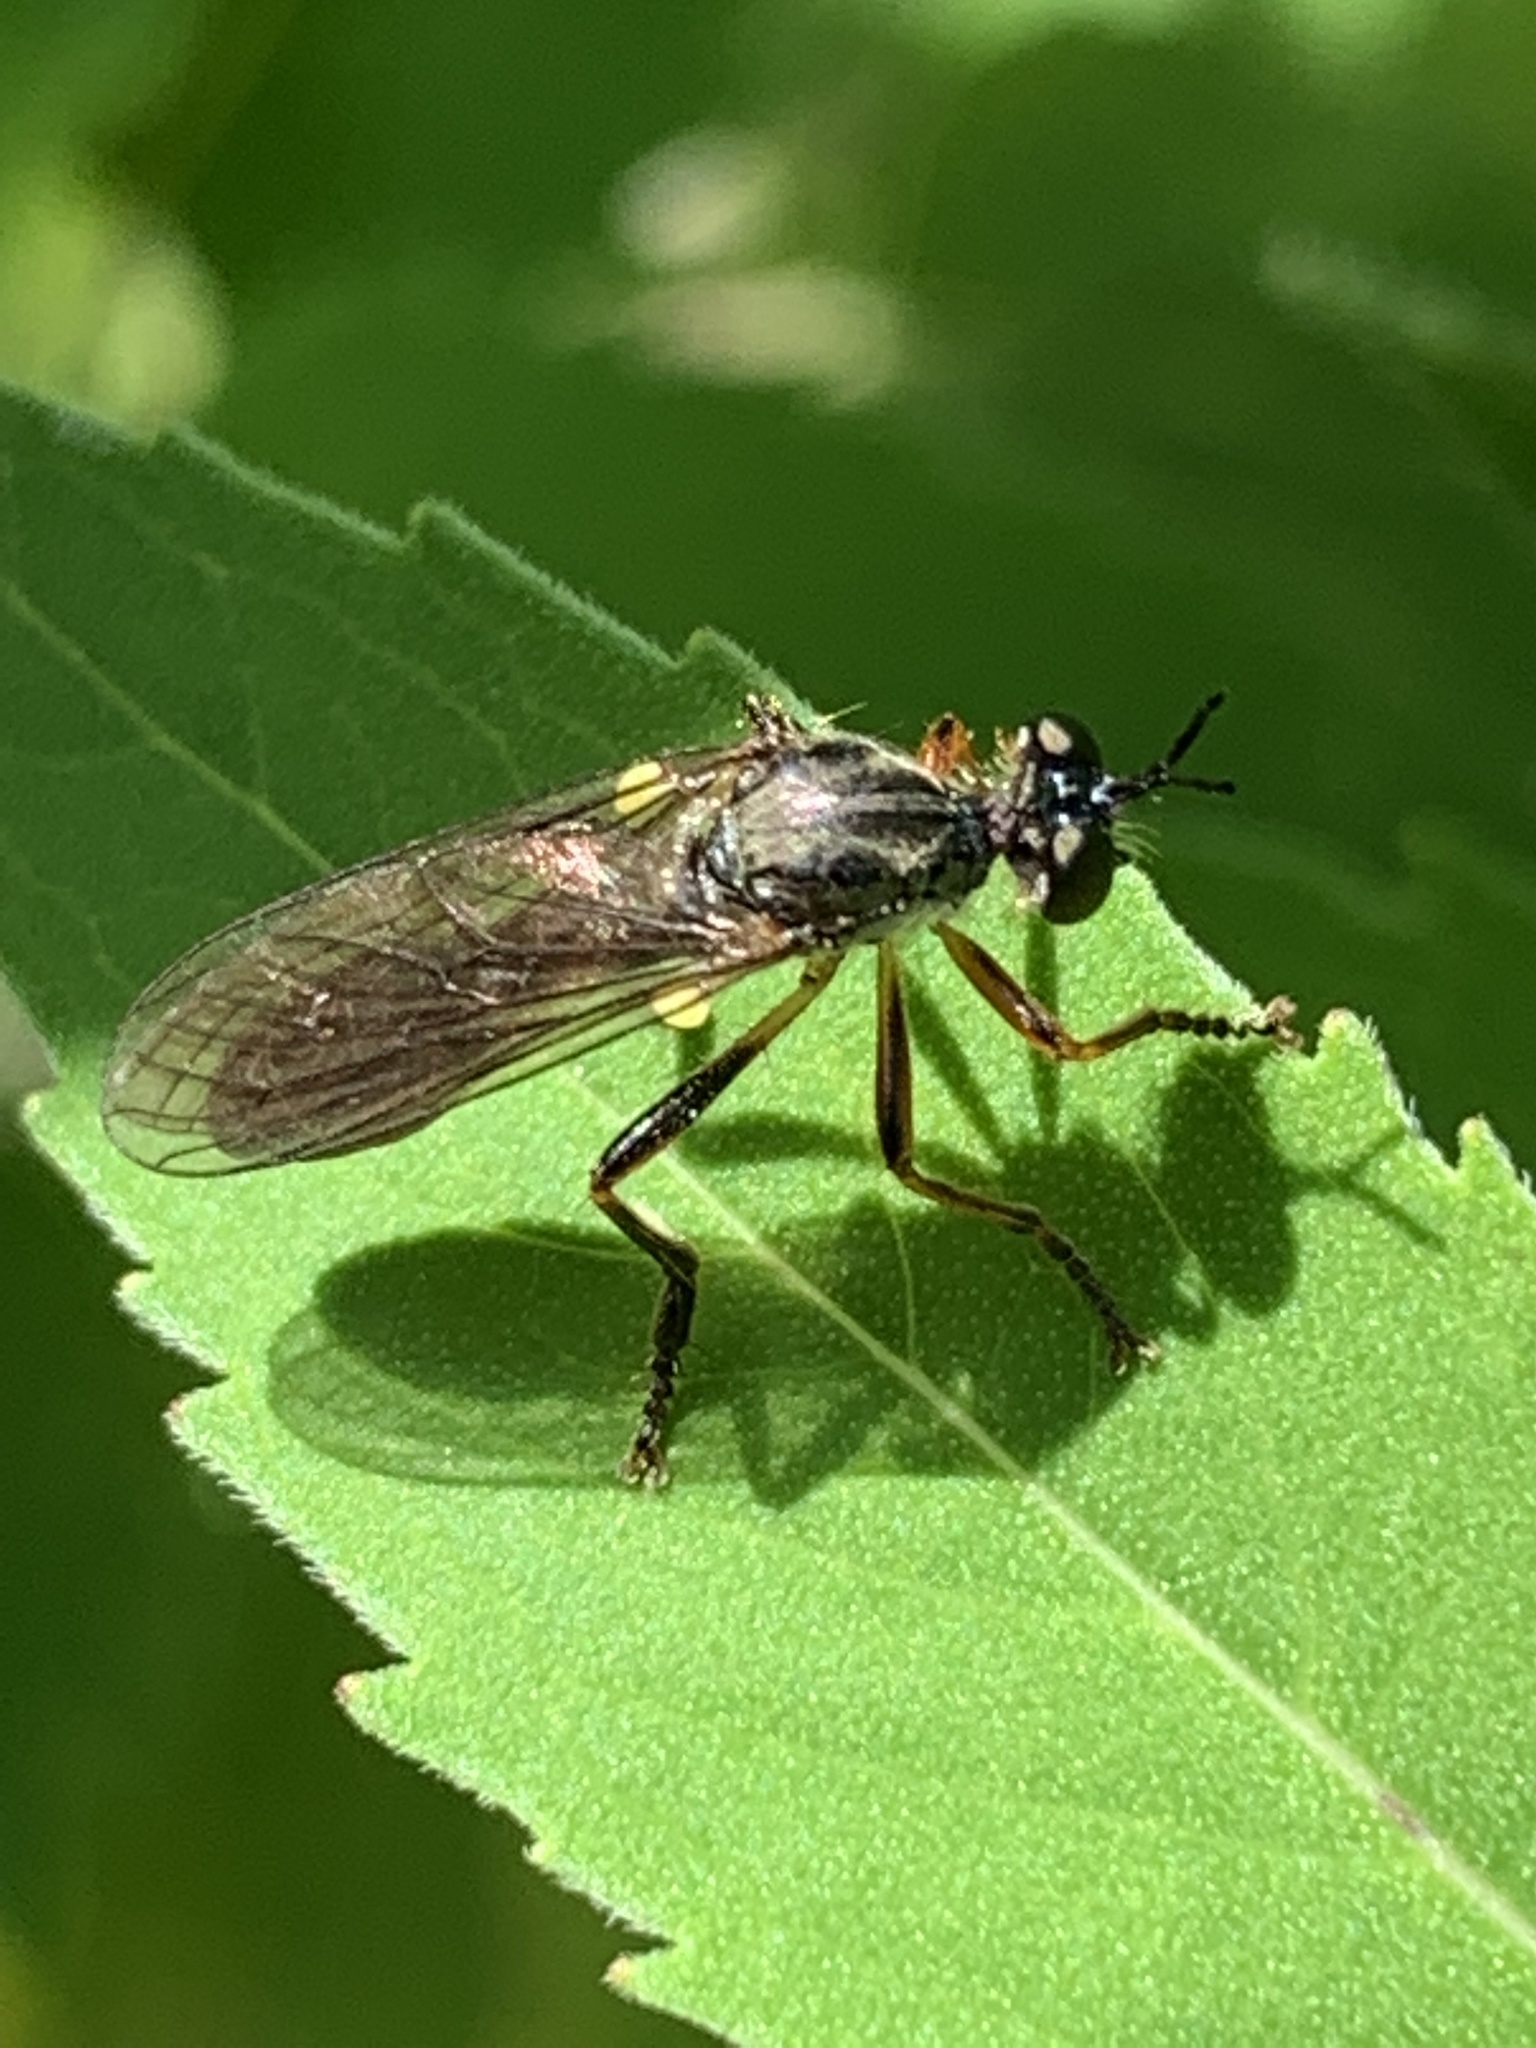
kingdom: Animalia
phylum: Arthropoda
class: Insecta
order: Diptera
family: Asilidae
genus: Dioctria
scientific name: Dioctria hyalipennis
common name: Stripe-legged robberfly
